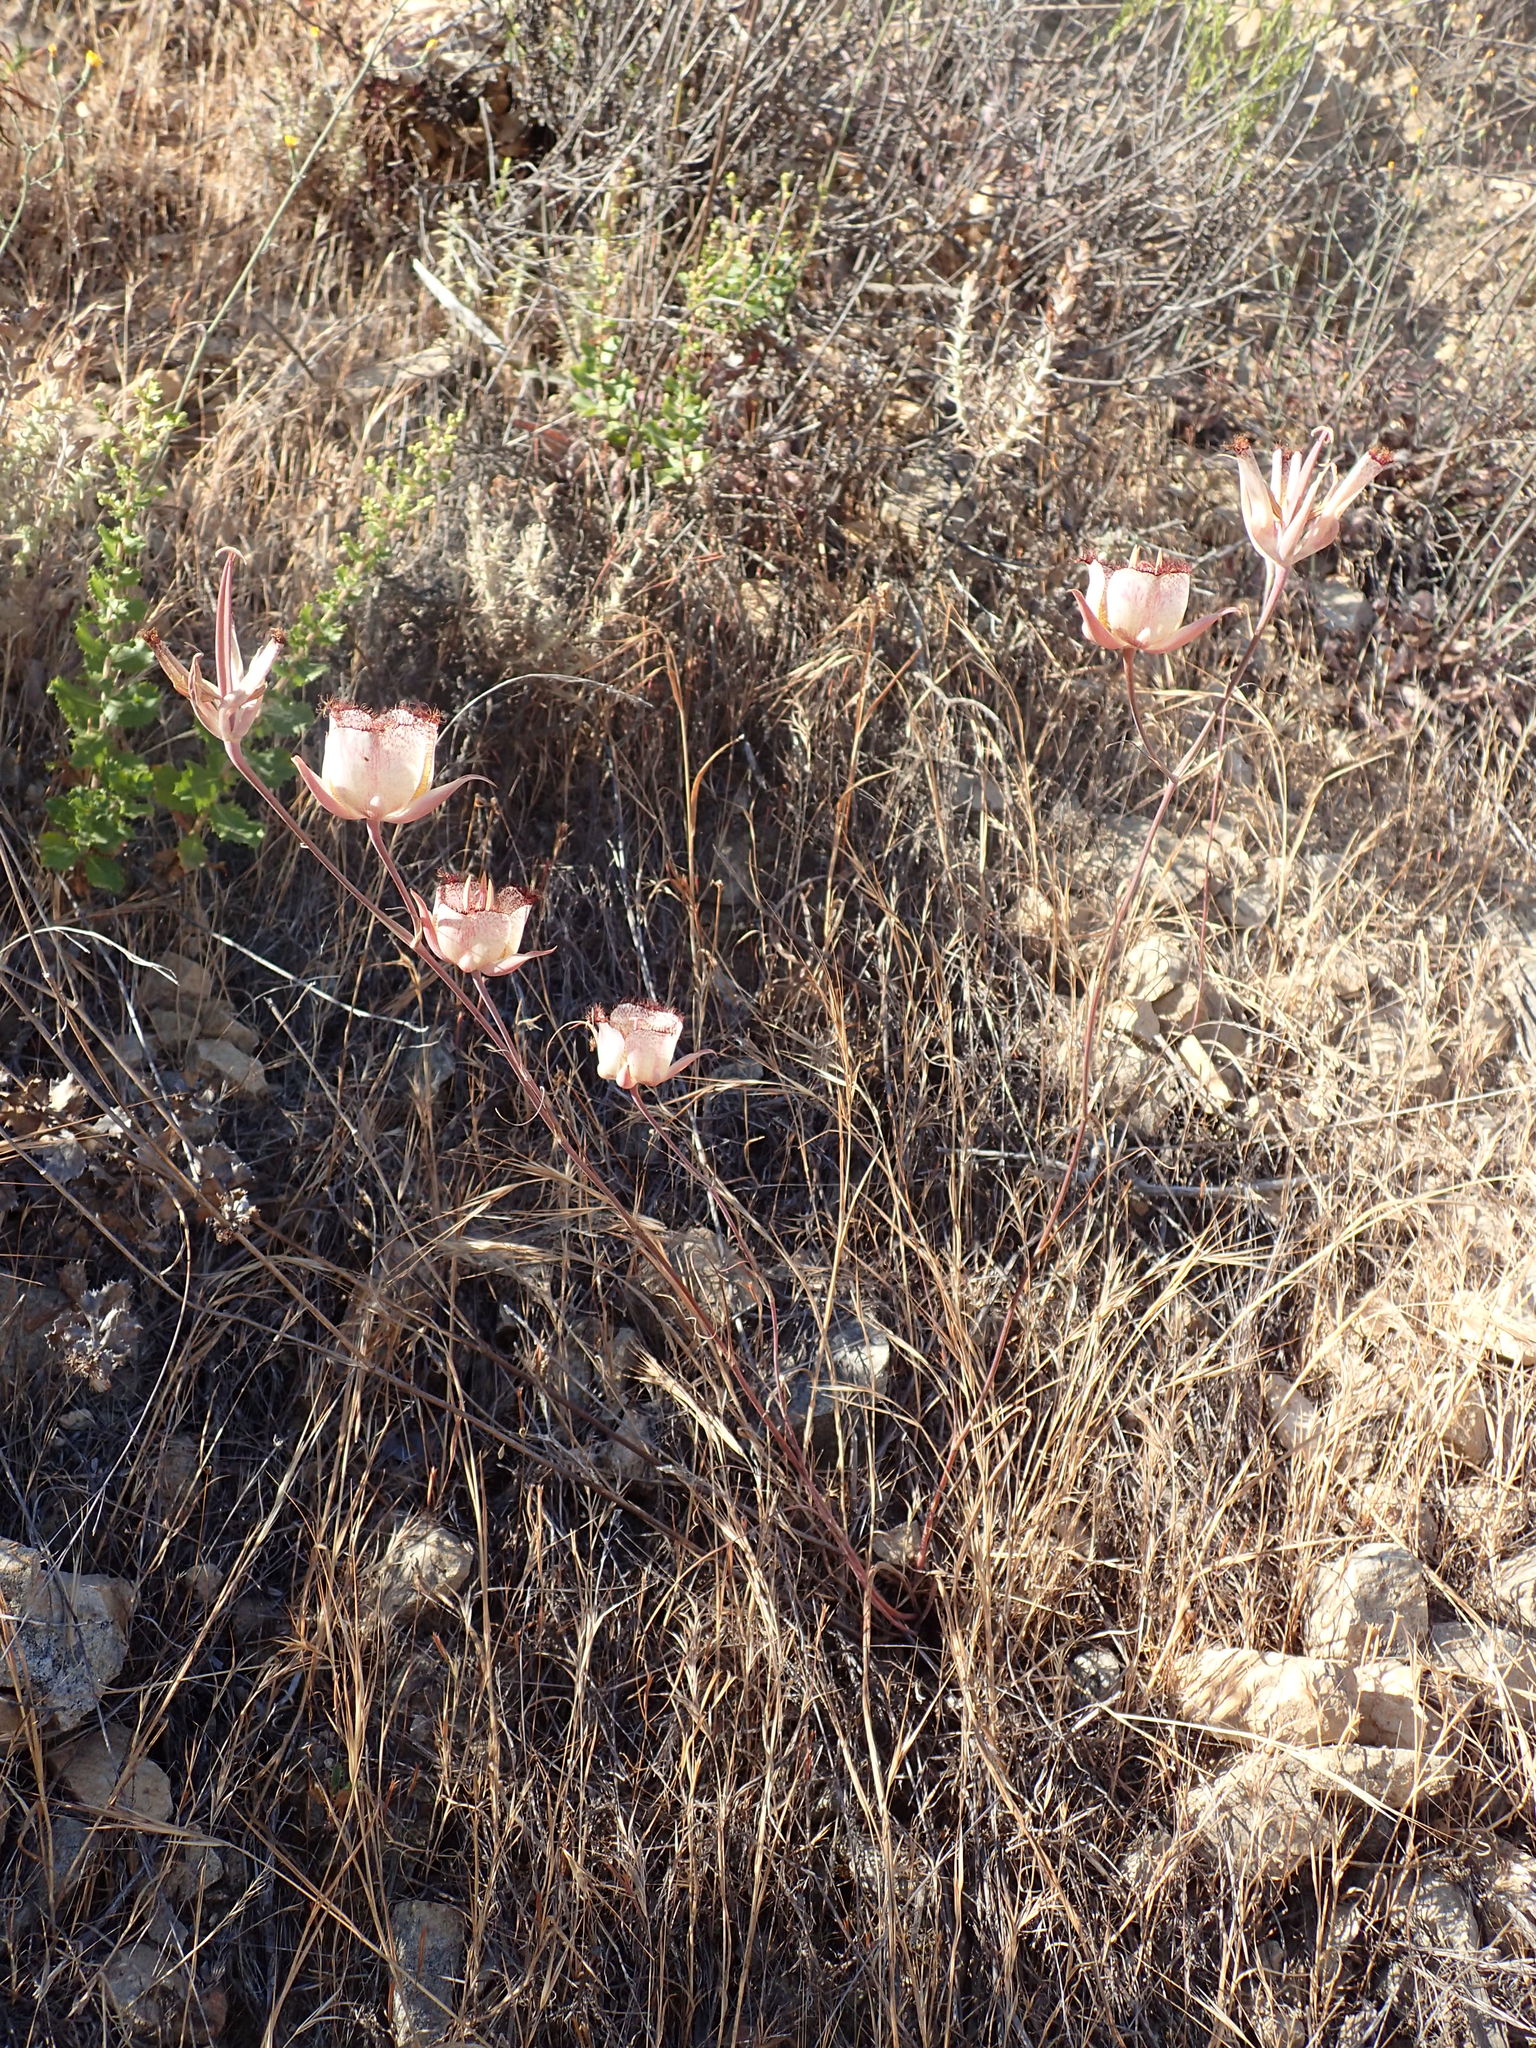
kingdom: Plantae
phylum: Tracheophyta
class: Liliopsida
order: Liliales
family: Liliaceae
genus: Calochortus
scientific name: Calochortus fimbriatus
